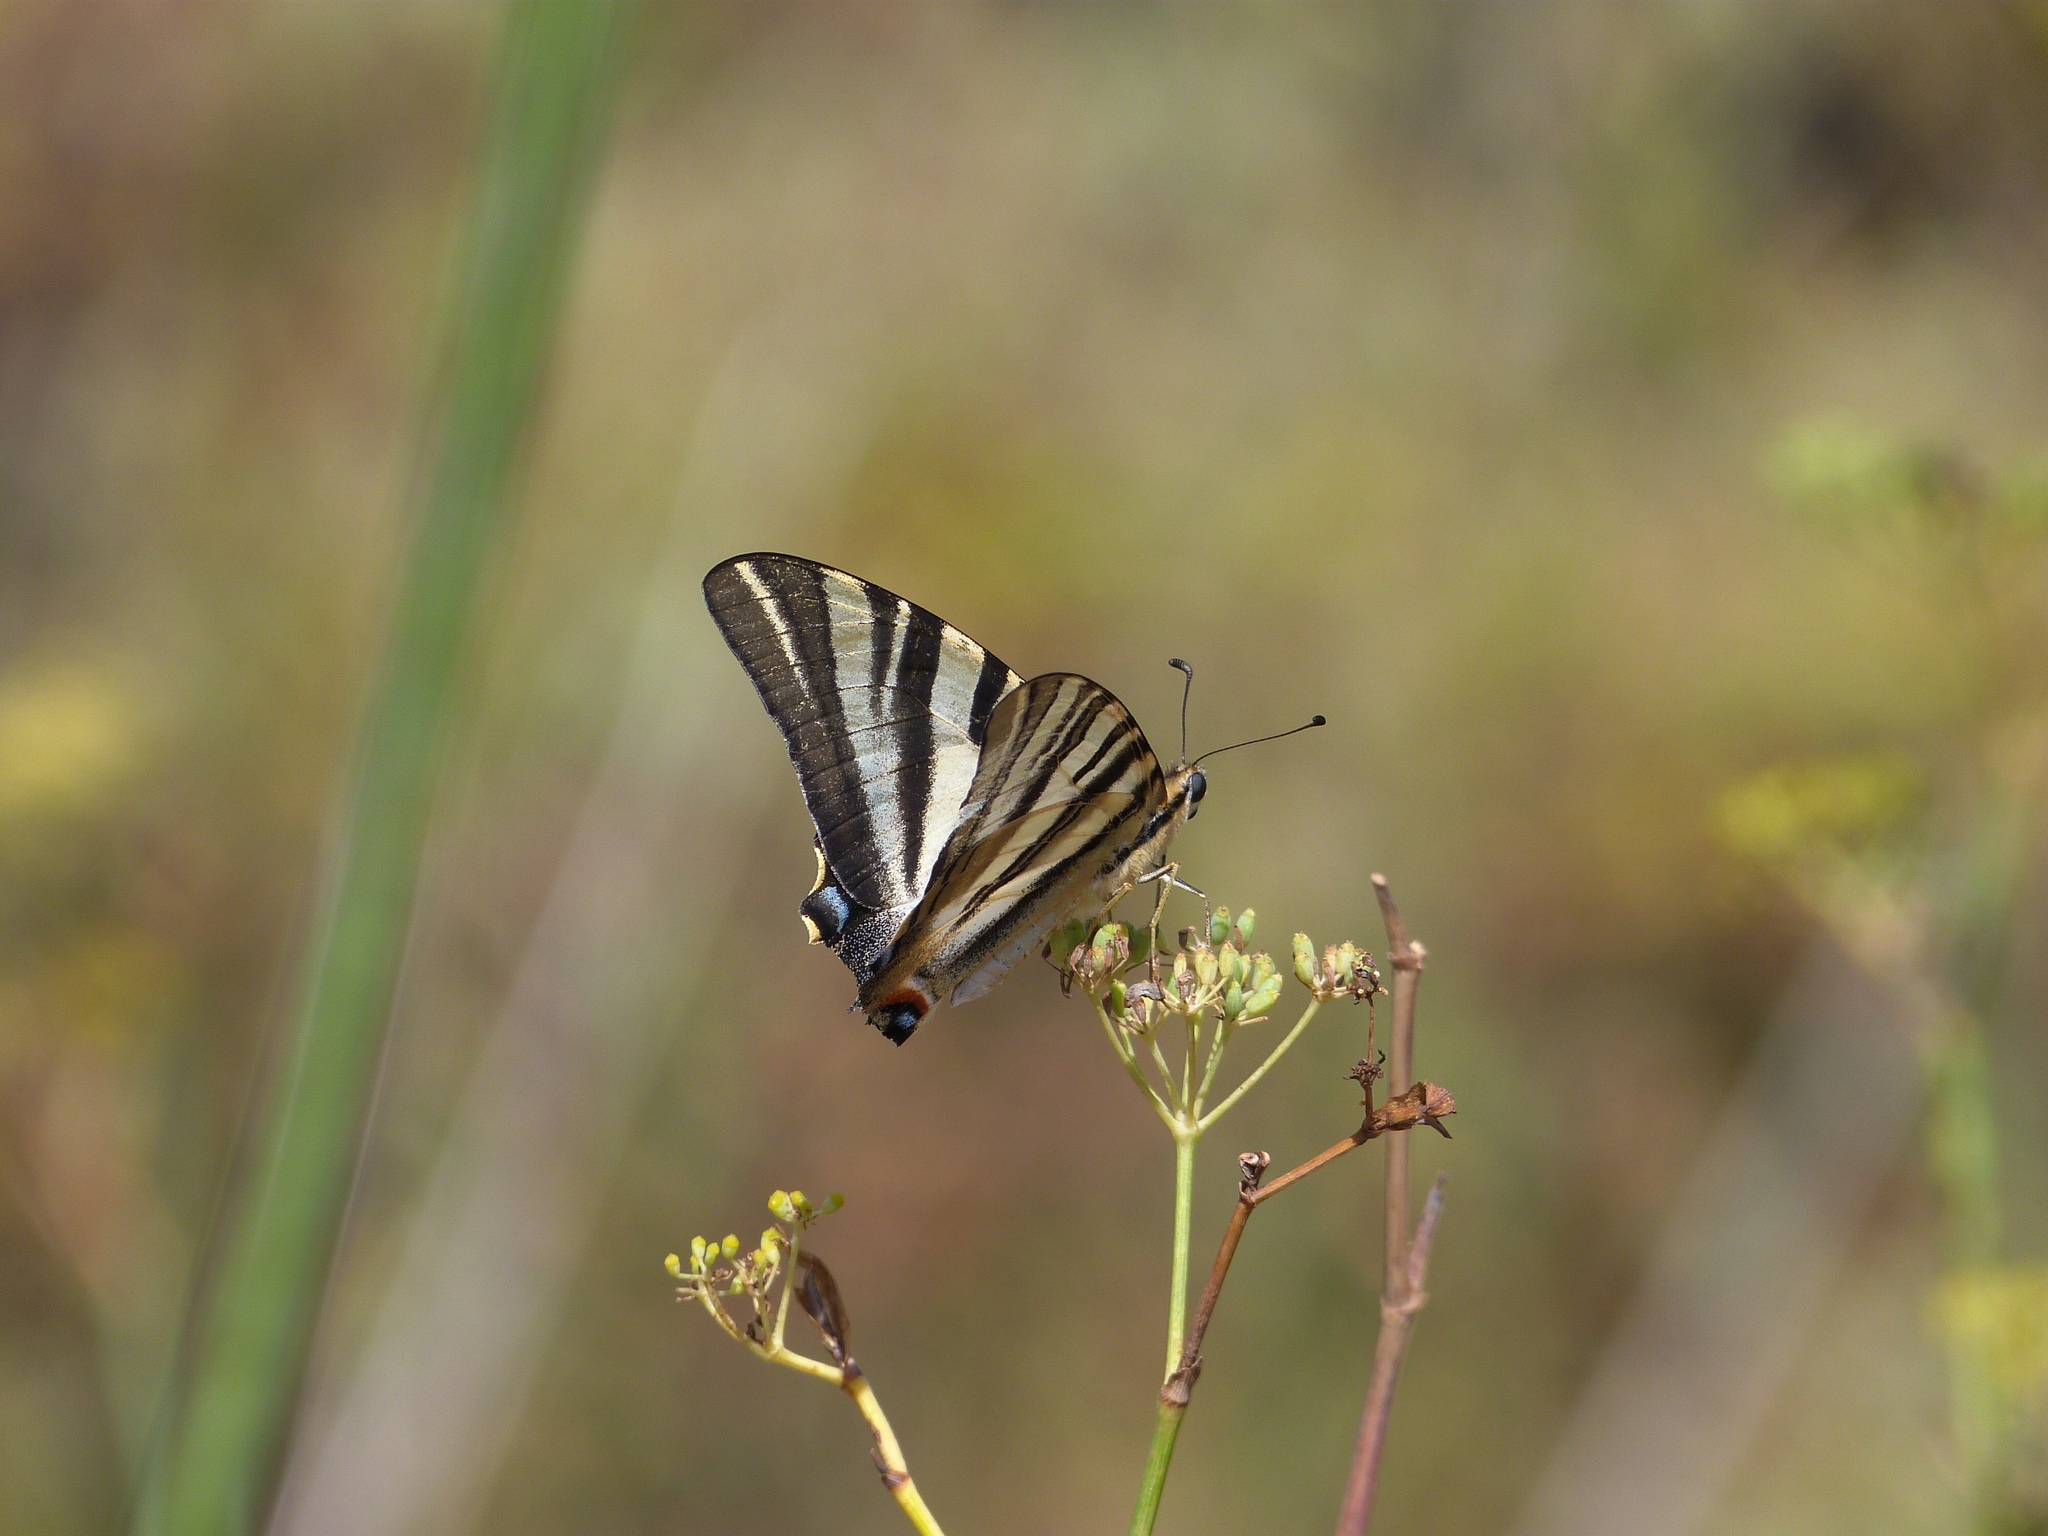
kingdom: Animalia
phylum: Arthropoda
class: Insecta
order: Lepidoptera
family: Papilionidae
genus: Iphiclides
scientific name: Iphiclides feisthamelii
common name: Iberian scarce swallowtail
